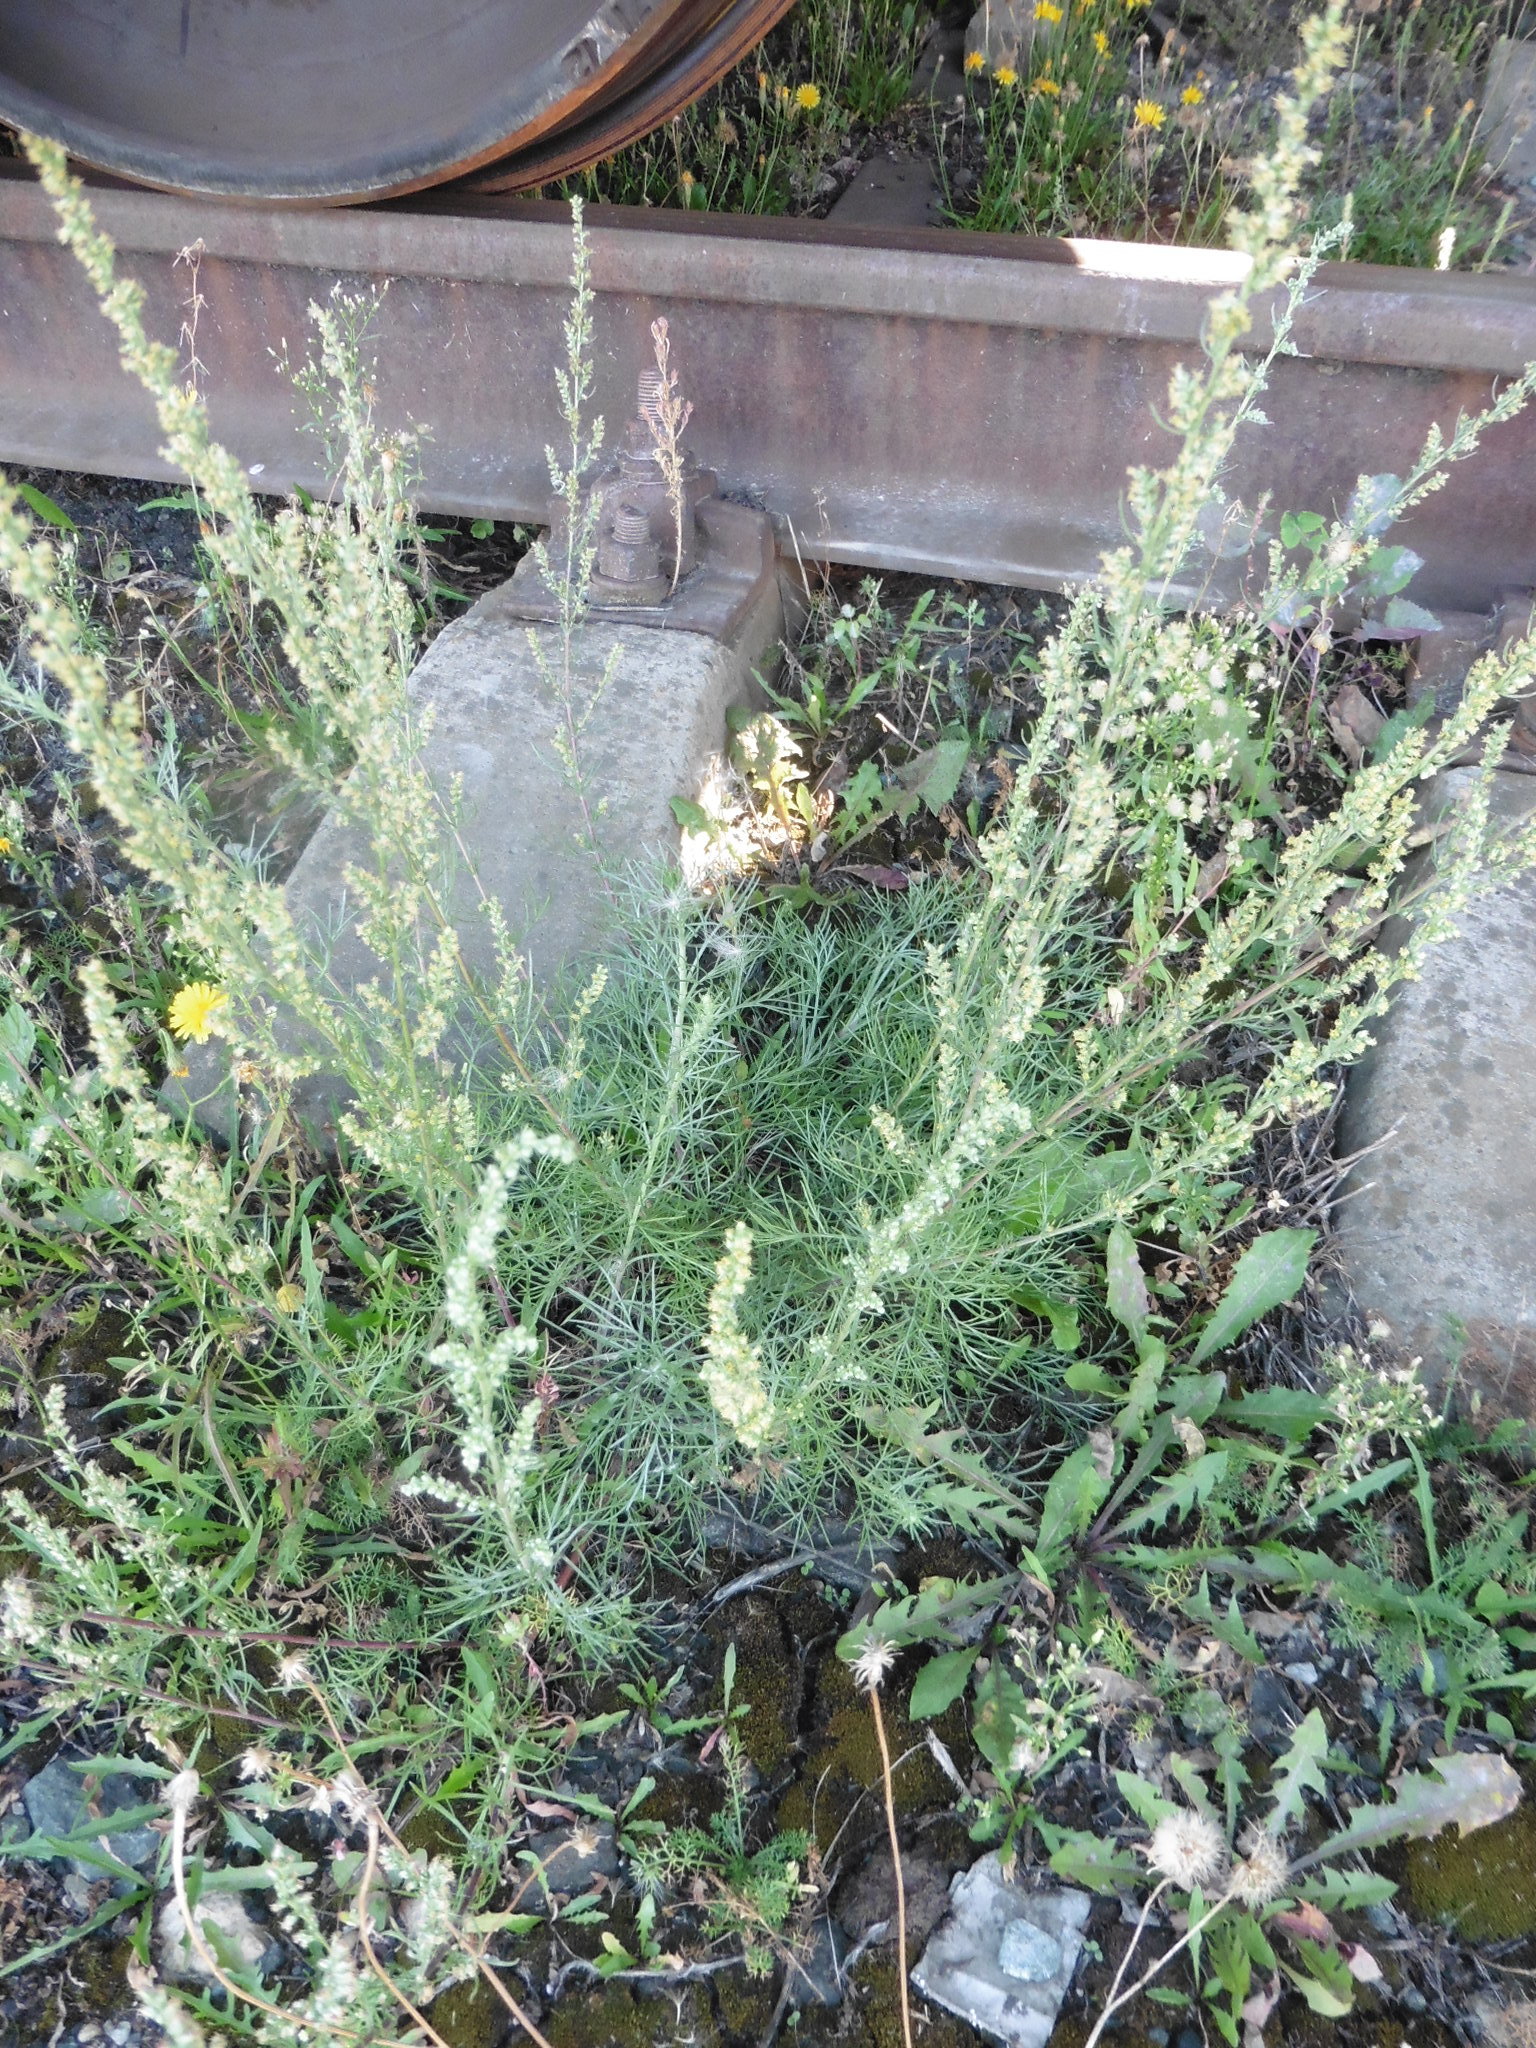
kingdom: Plantae
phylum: Tracheophyta
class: Magnoliopsida
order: Asterales
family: Asteraceae
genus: Artemisia
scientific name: Artemisia campestris
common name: Field wormwood
